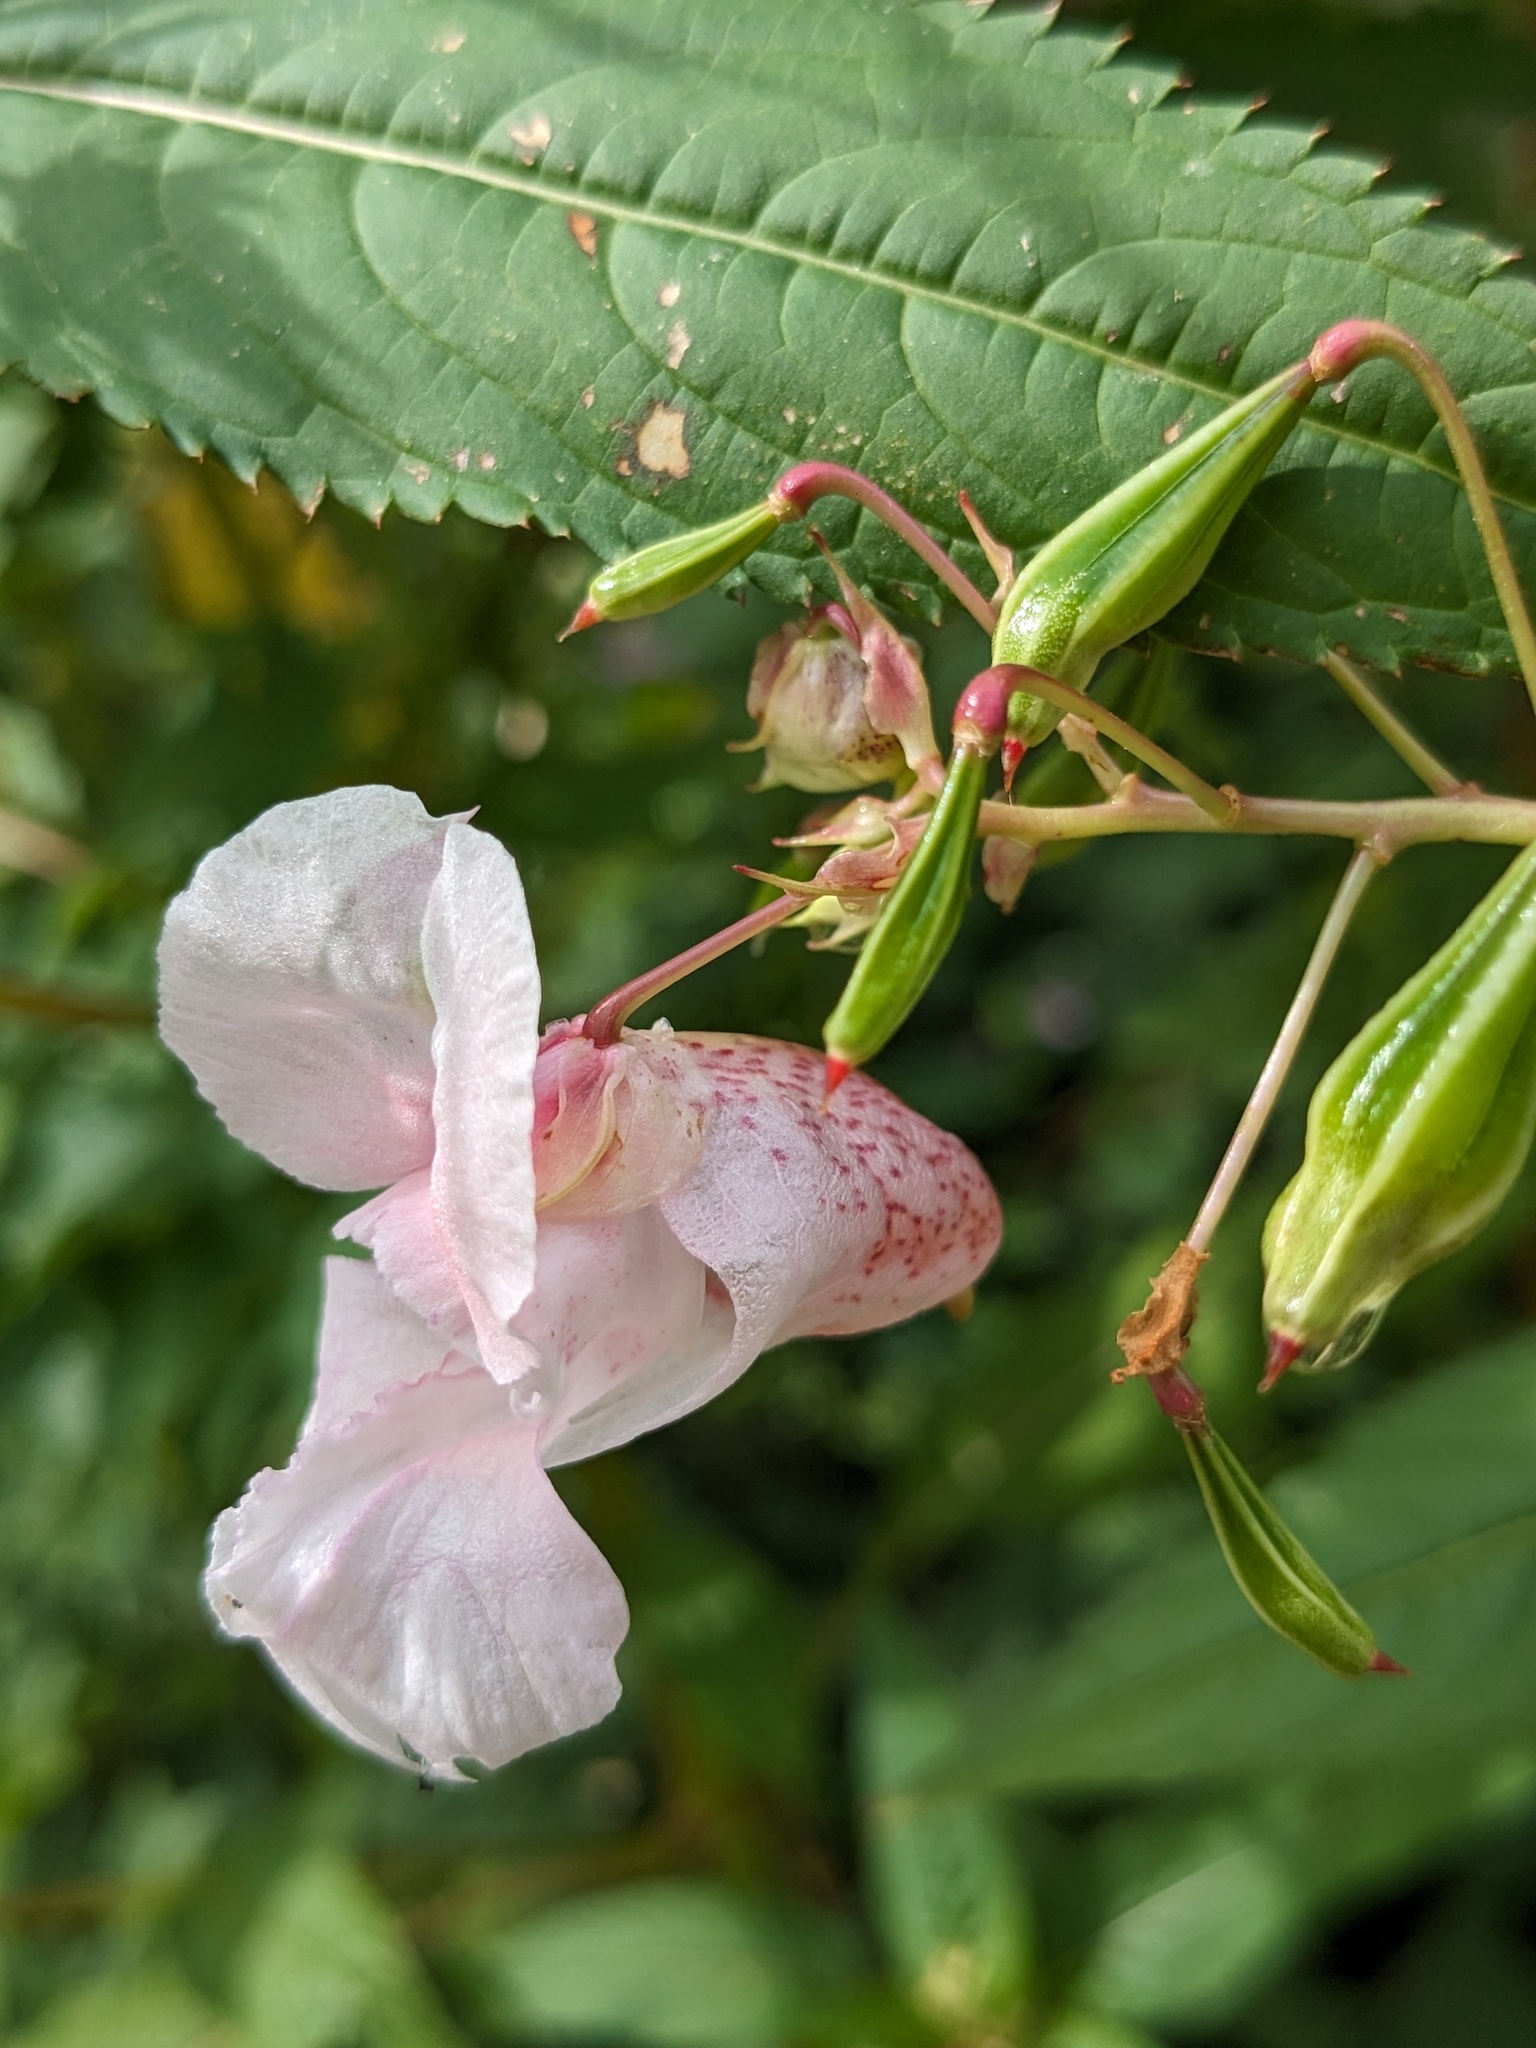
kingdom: Plantae
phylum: Tracheophyta
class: Magnoliopsida
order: Ericales
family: Balsaminaceae
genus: Impatiens
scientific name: Impatiens glandulifera
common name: Himalayan balsam
